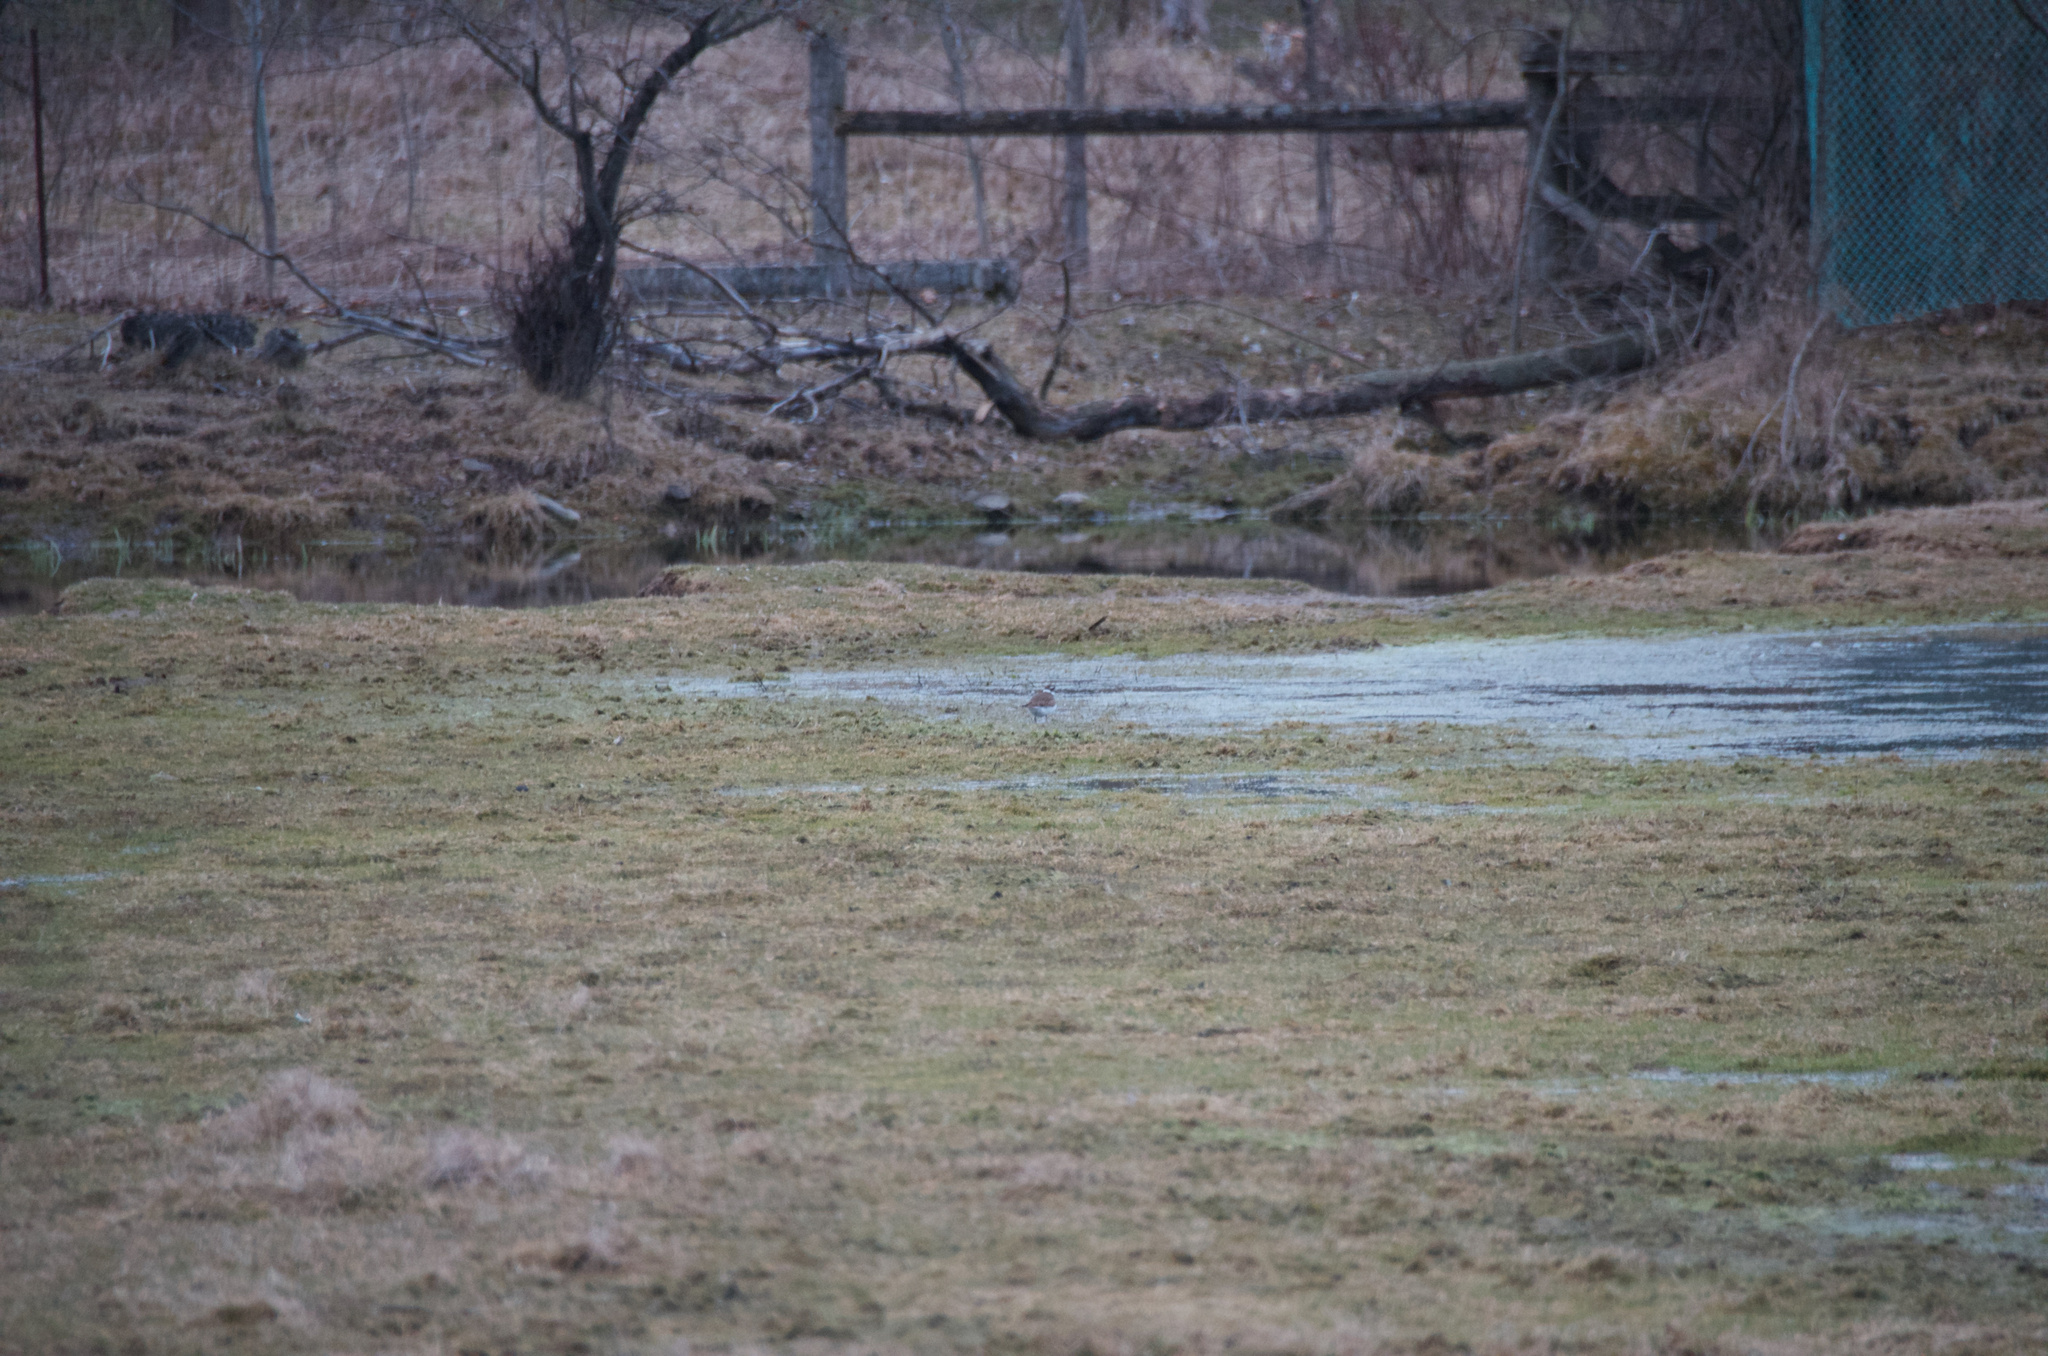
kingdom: Animalia
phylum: Chordata
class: Aves
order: Charadriiformes
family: Charadriidae
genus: Charadrius
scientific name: Charadrius vociferus
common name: Killdeer
